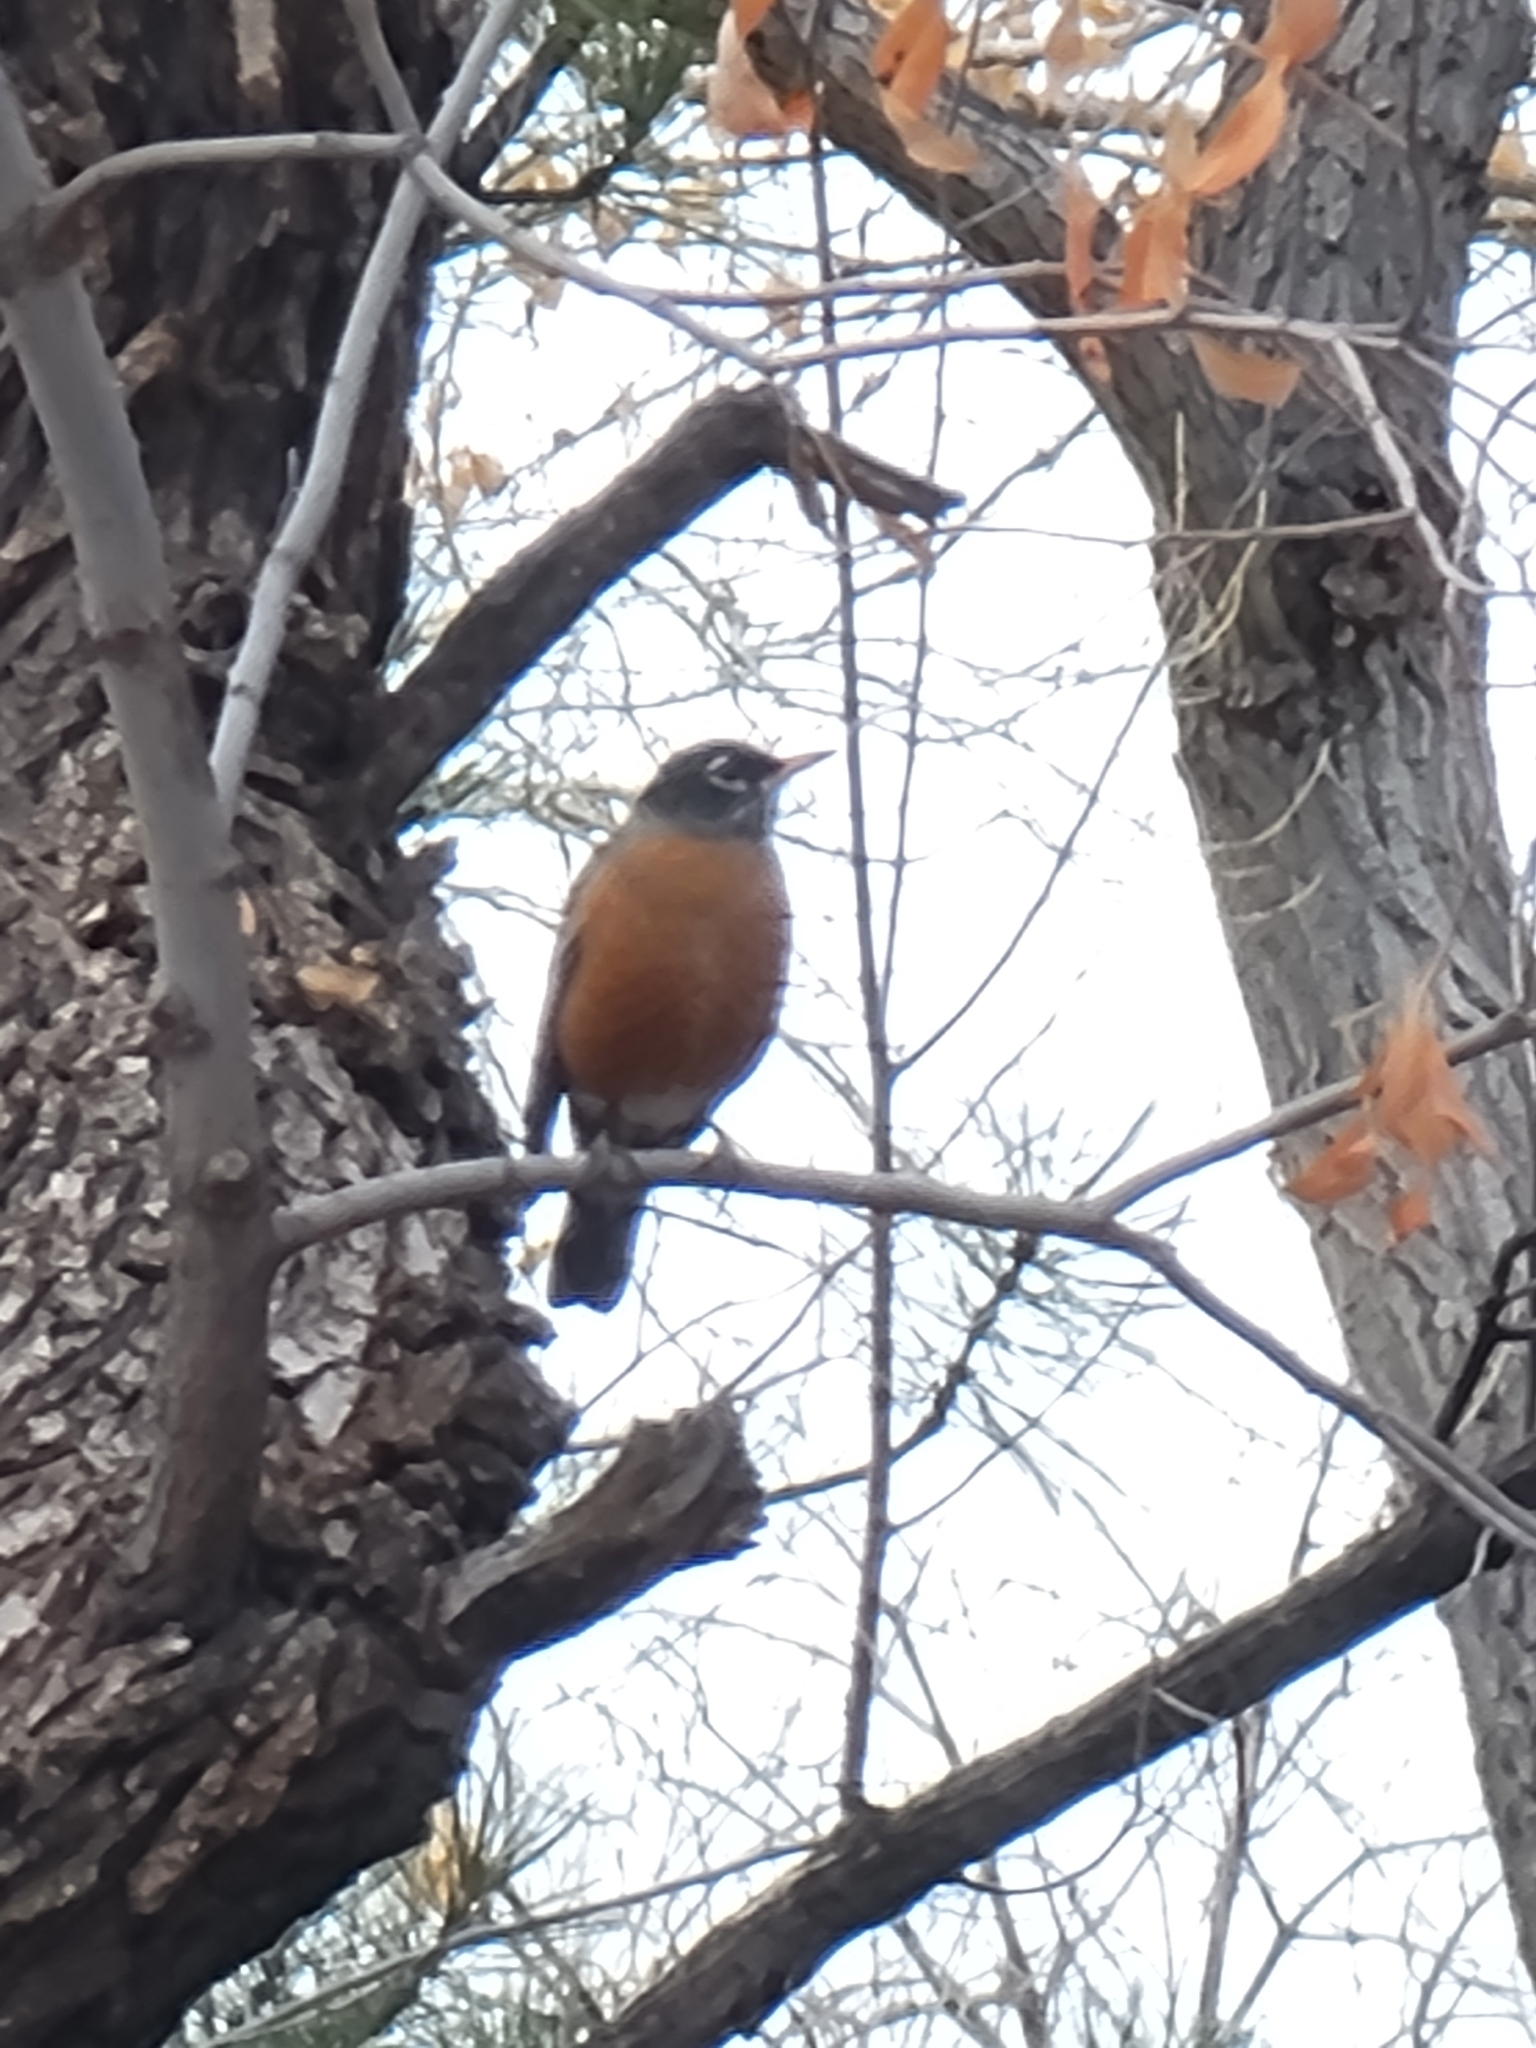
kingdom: Animalia
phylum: Chordata
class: Aves
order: Passeriformes
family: Turdidae
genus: Turdus
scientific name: Turdus migratorius
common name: American robin
